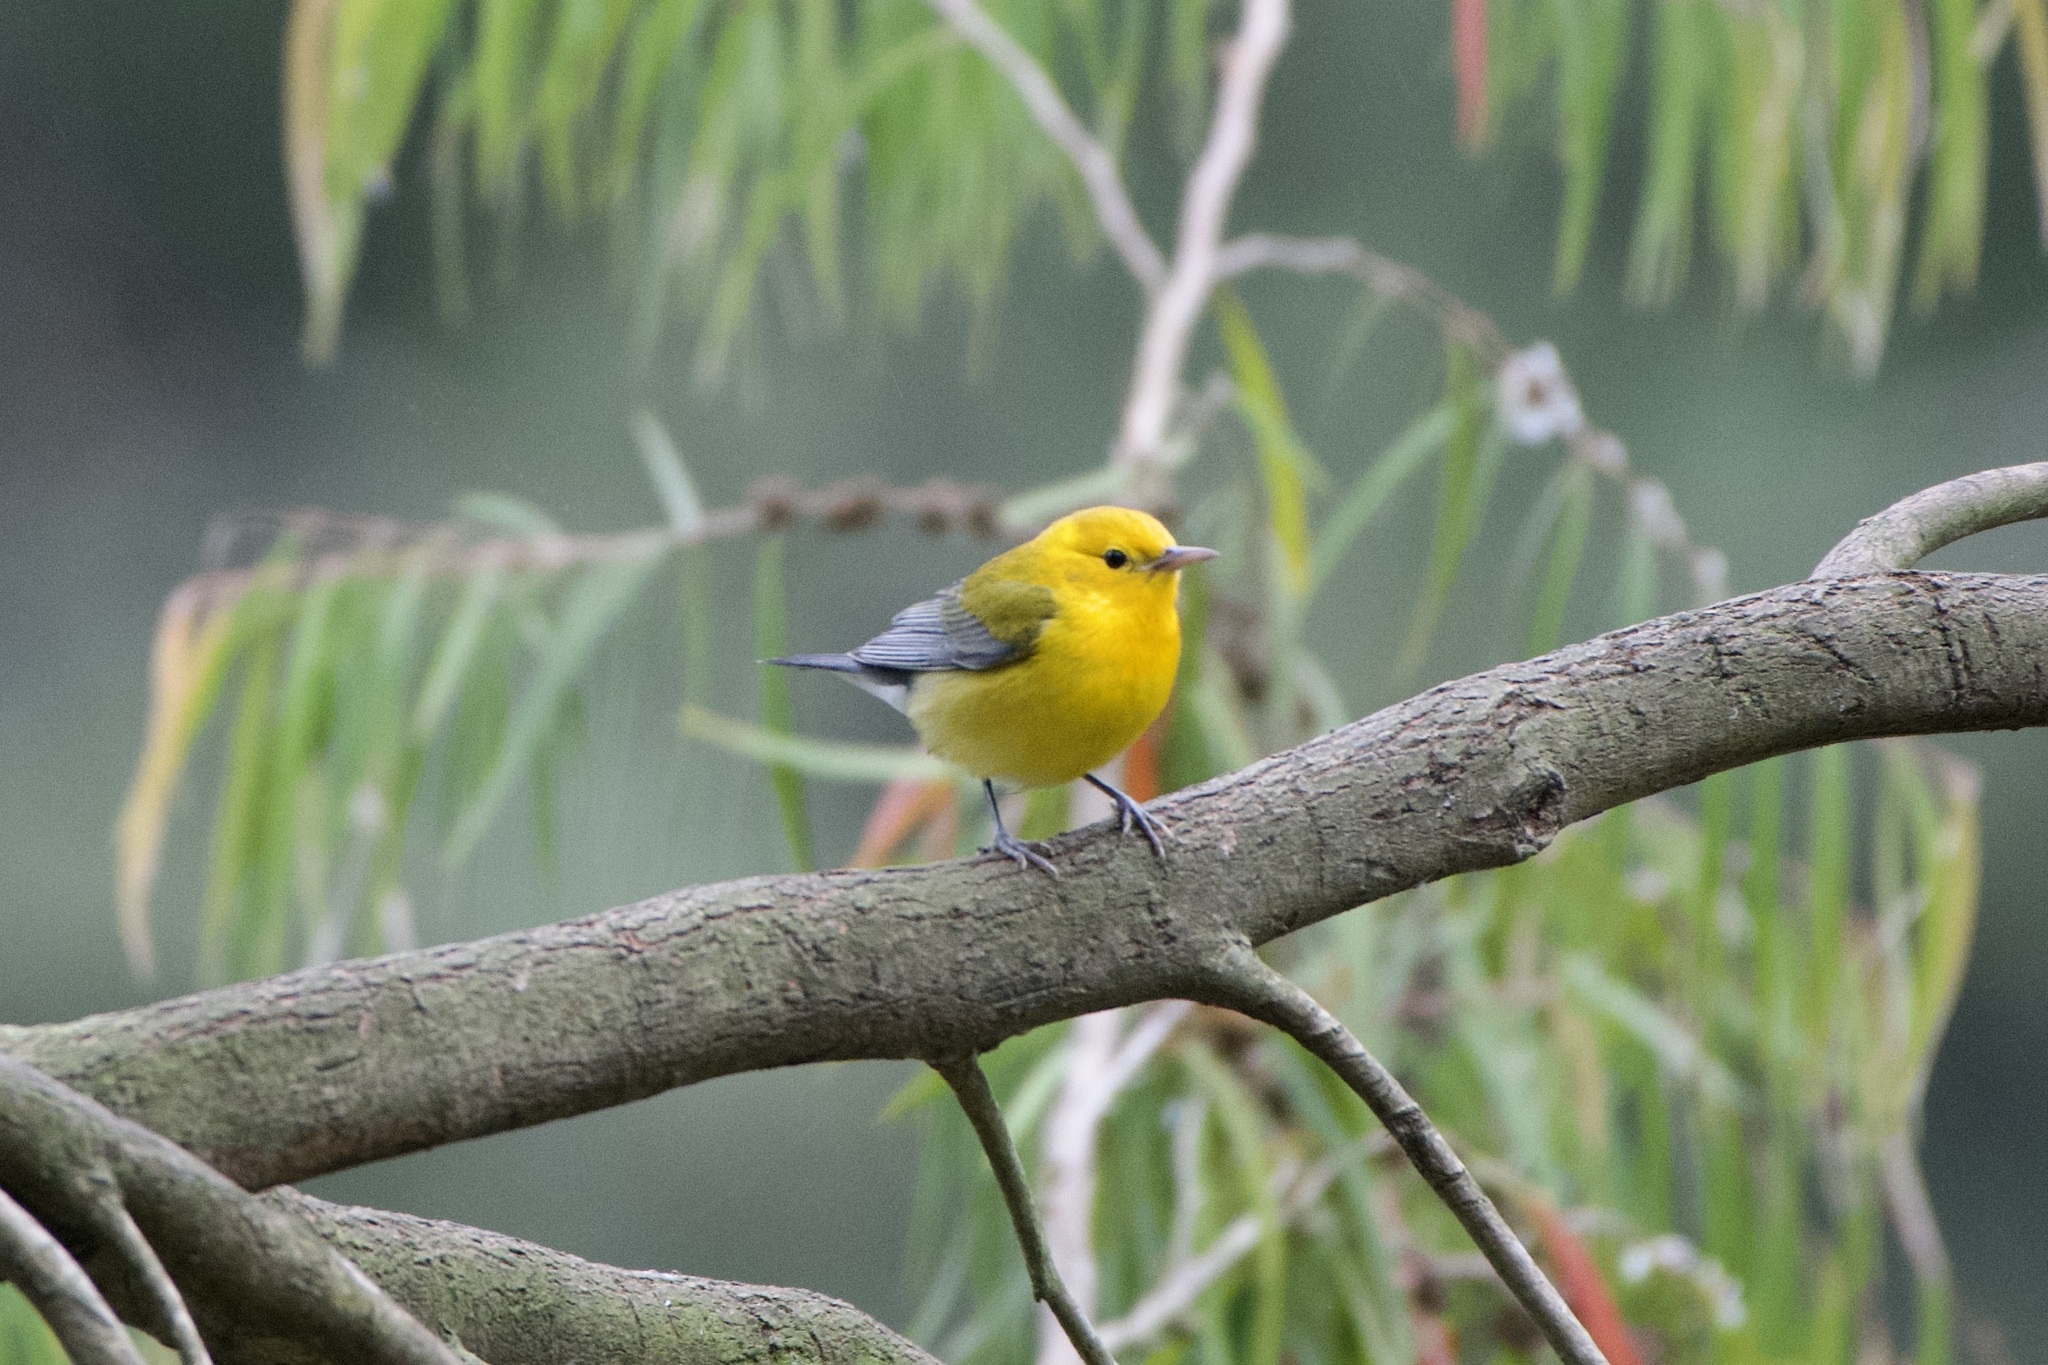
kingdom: Animalia
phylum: Chordata
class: Aves
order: Passeriformes
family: Parulidae
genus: Protonotaria
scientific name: Protonotaria citrea
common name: Prothonotary warbler
